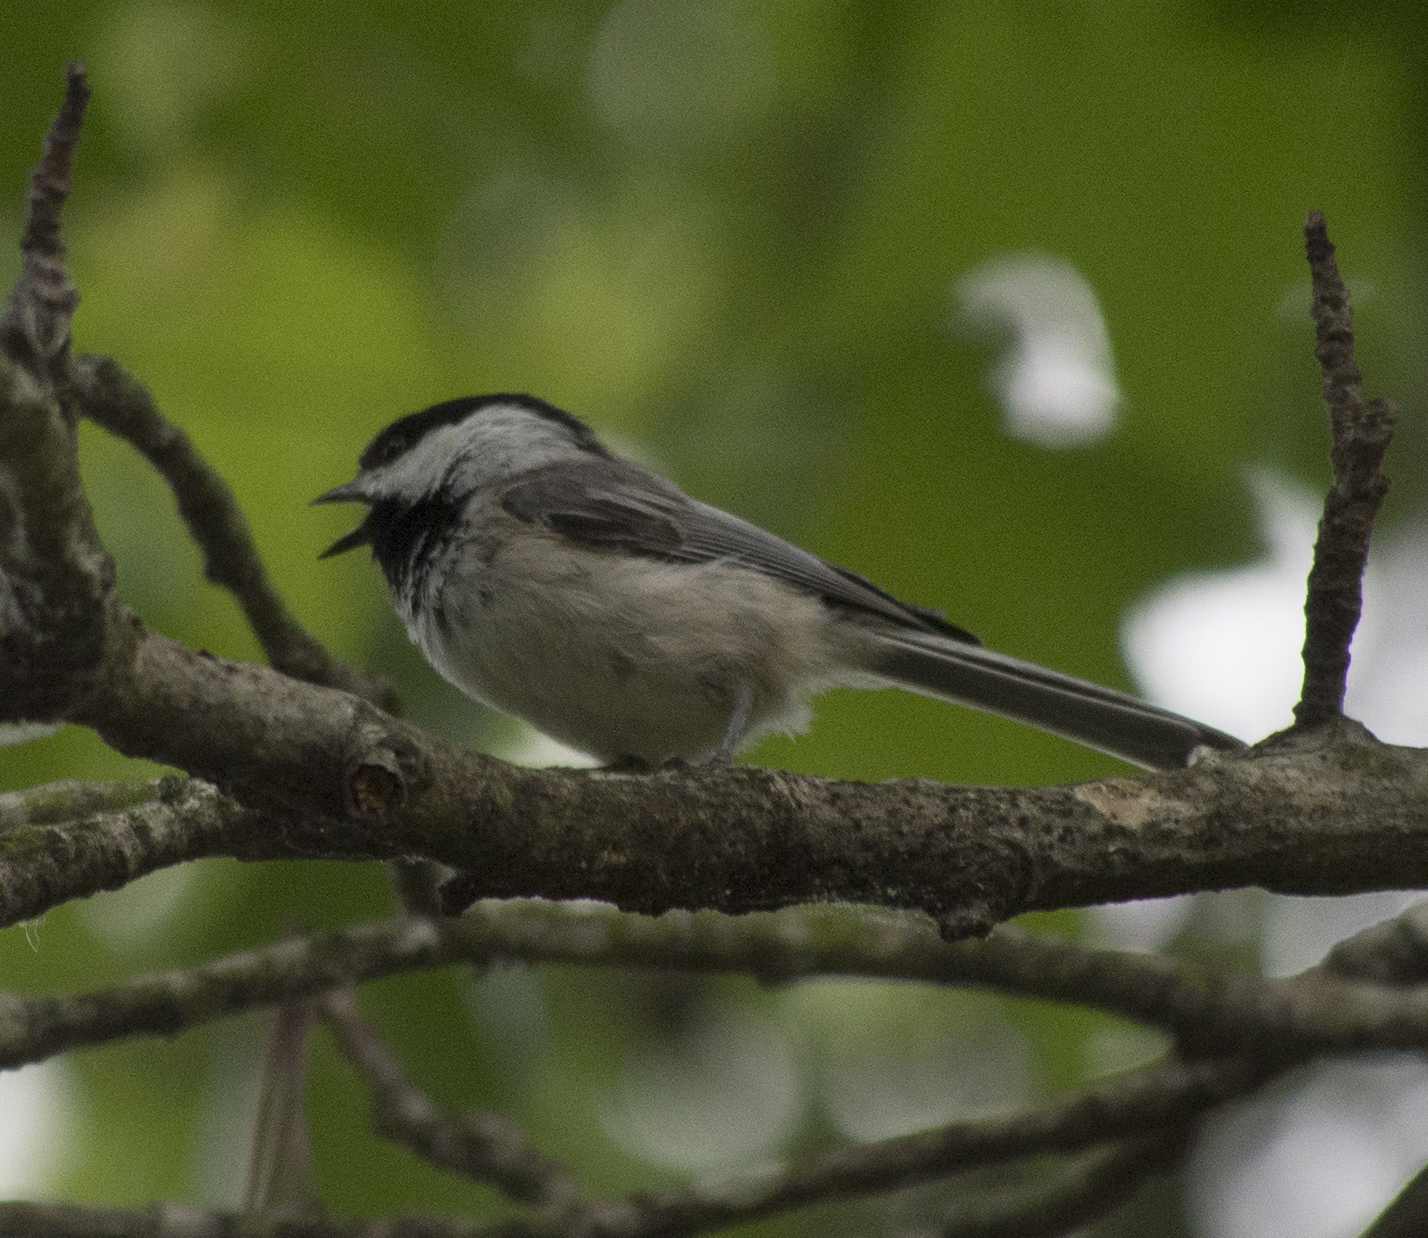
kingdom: Animalia
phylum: Chordata
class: Aves
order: Passeriformes
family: Paridae
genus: Poecile
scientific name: Poecile atricapillus
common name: Black-capped chickadee
